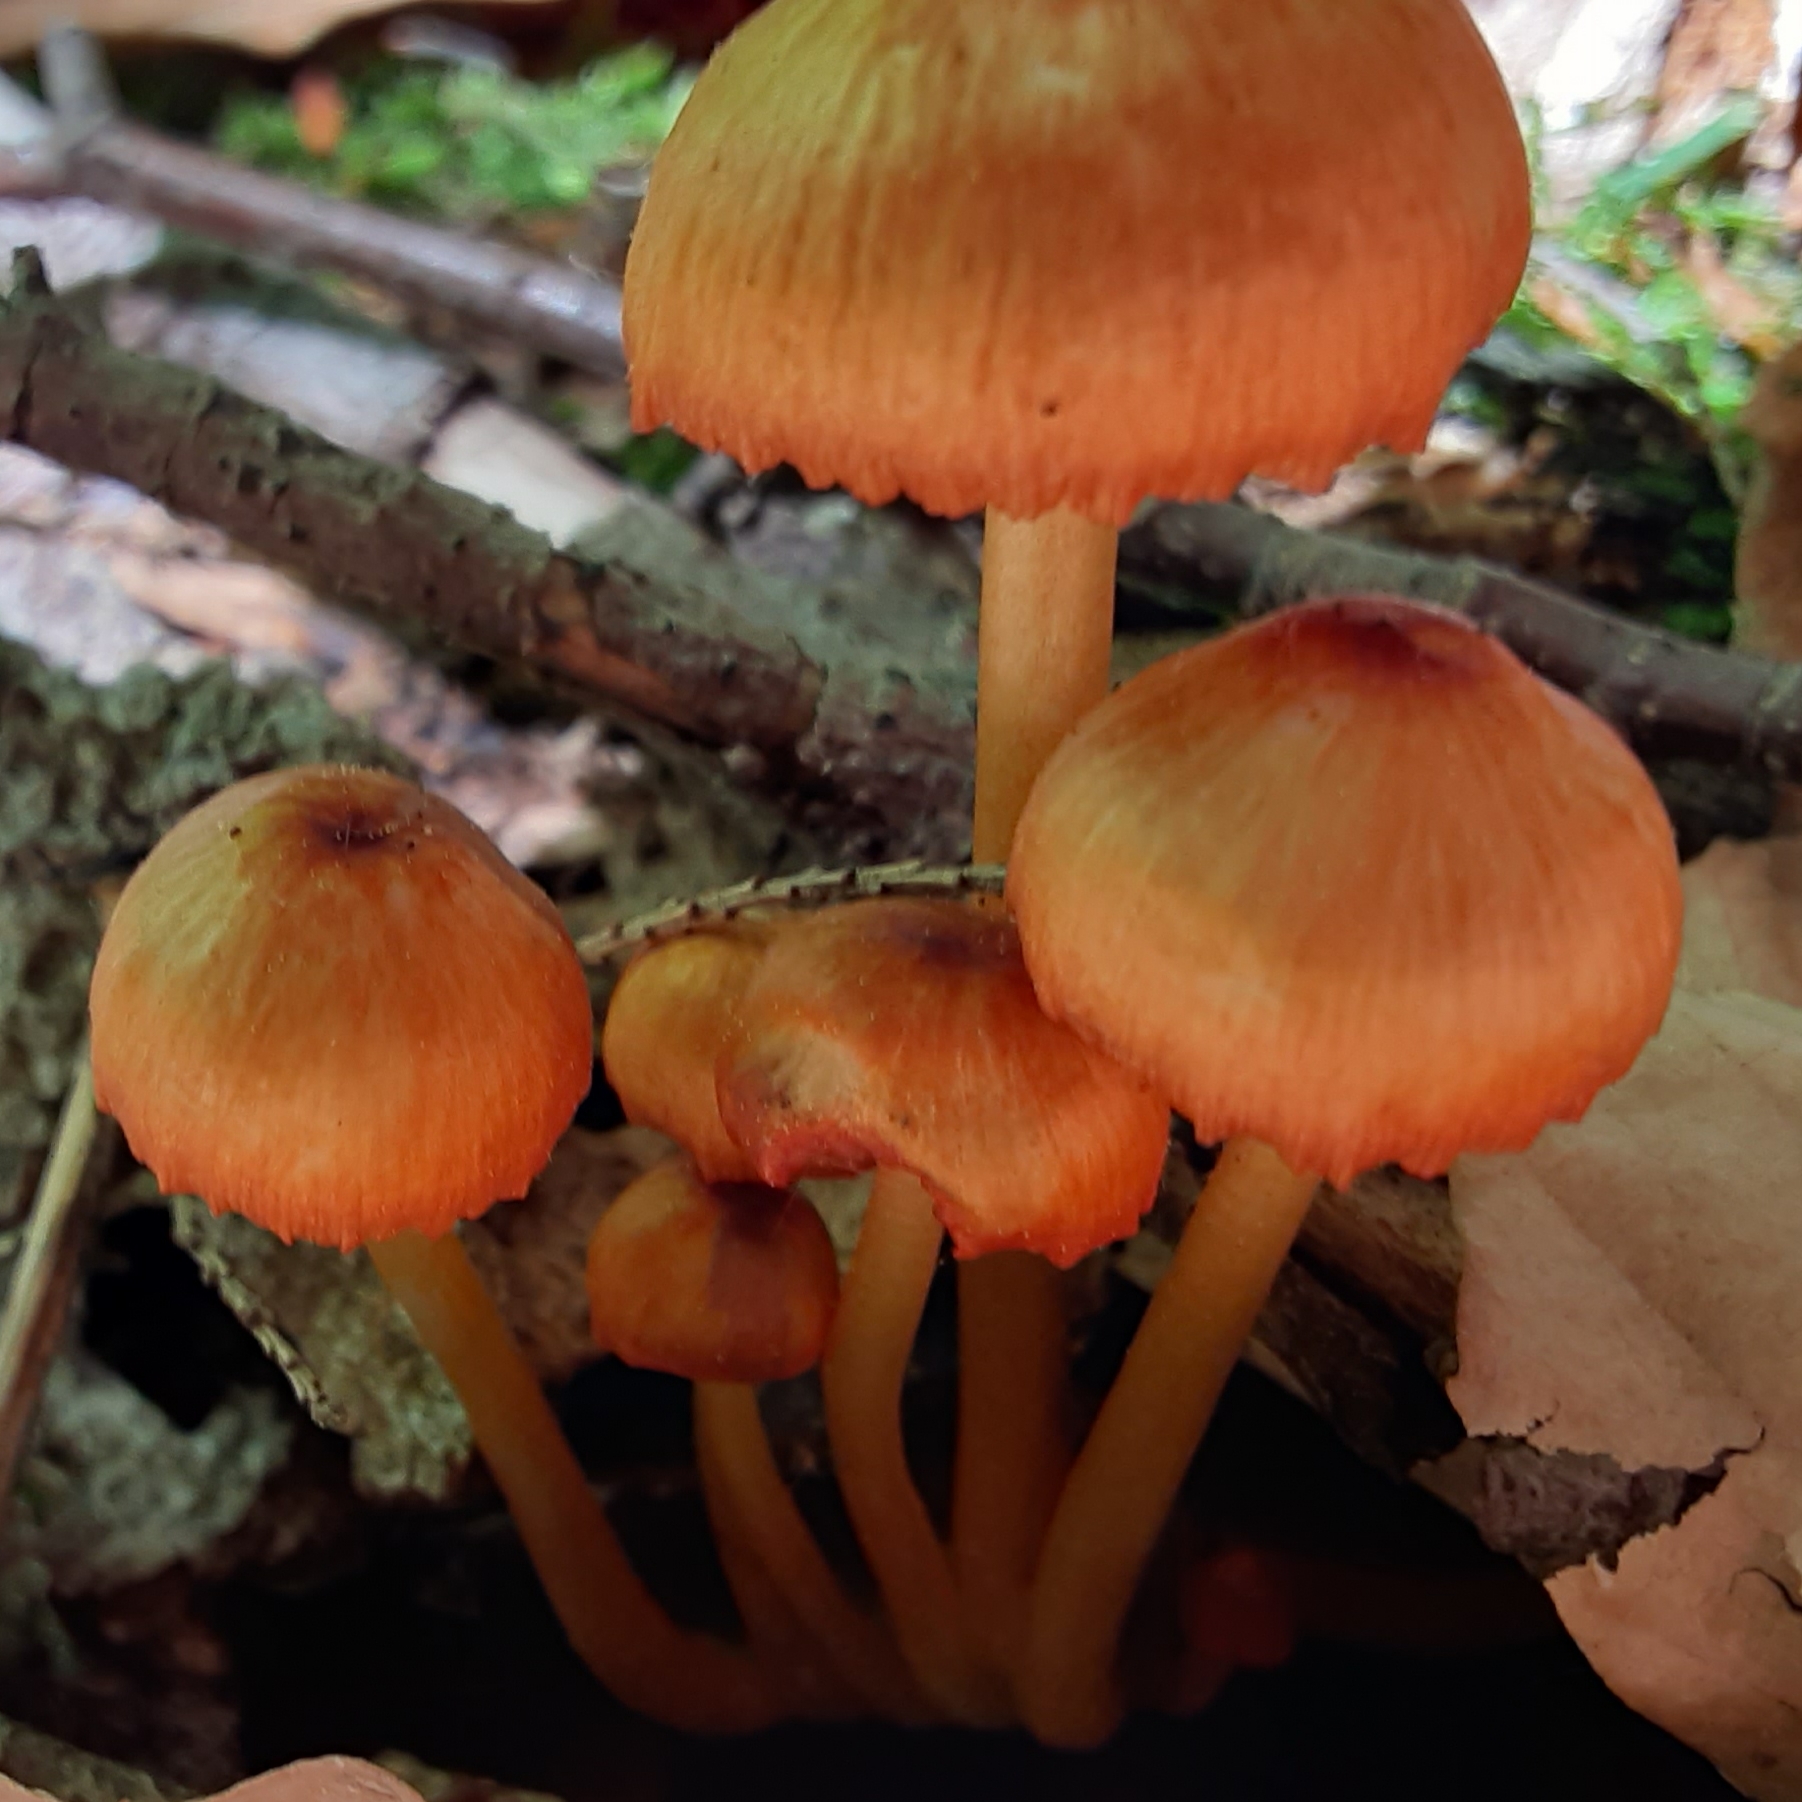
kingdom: Fungi
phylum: Basidiomycota
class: Agaricomycetes
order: Agaricales
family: Mycenaceae
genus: Mycena
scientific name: Mycena leaiana
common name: Orange mycena
